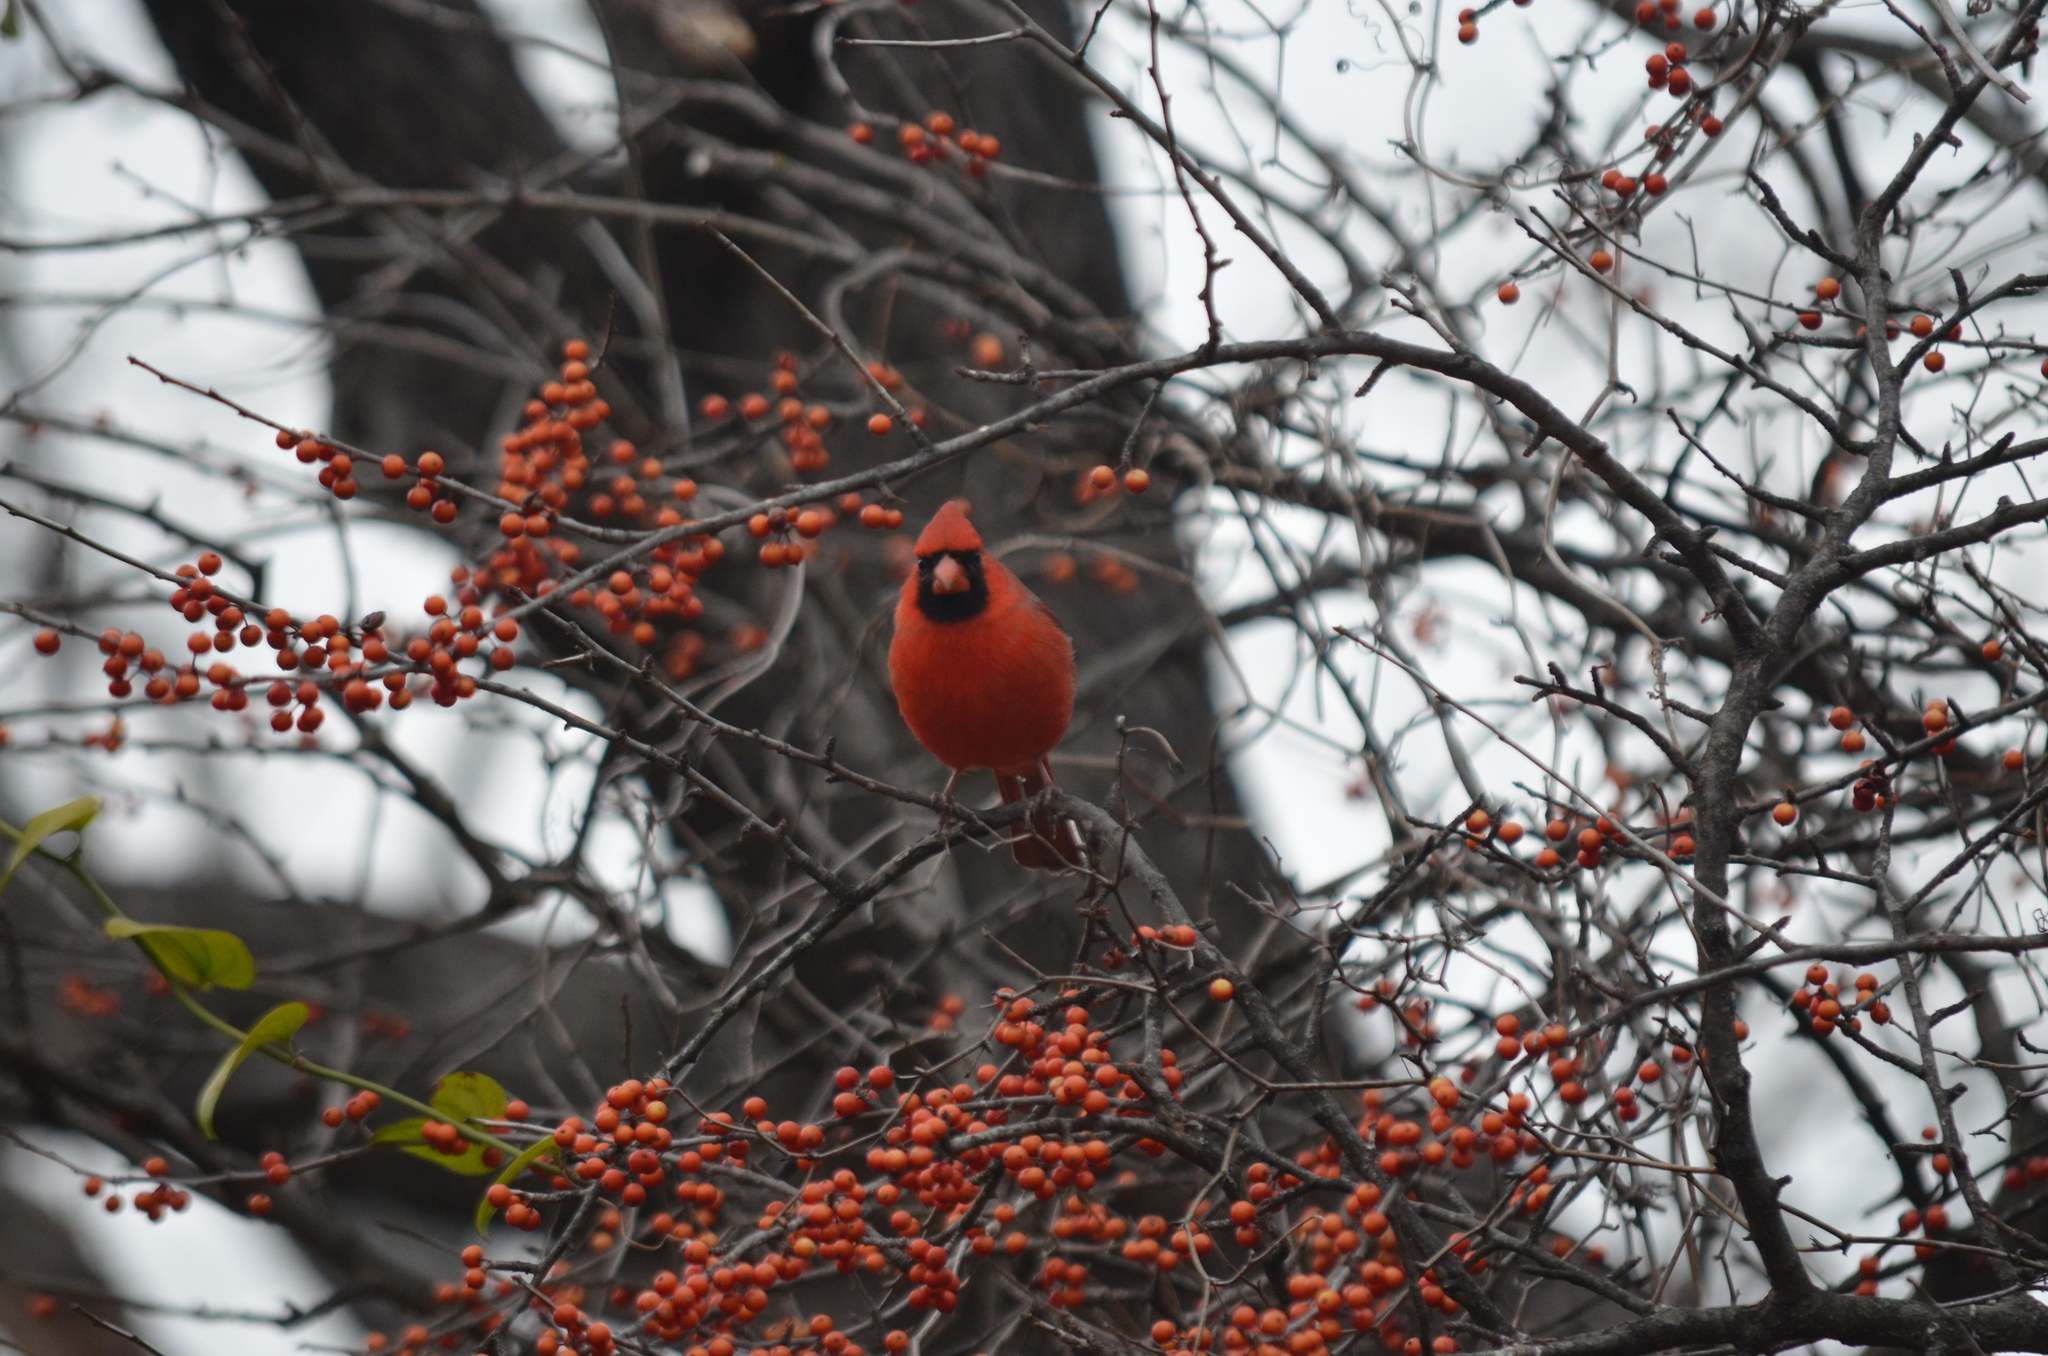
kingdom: Animalia
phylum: Chordata
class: Aves
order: Passeriformes
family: Cardinalidae
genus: Cardinalis
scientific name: Cardinalis cardinalis
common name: Northern cardinal
